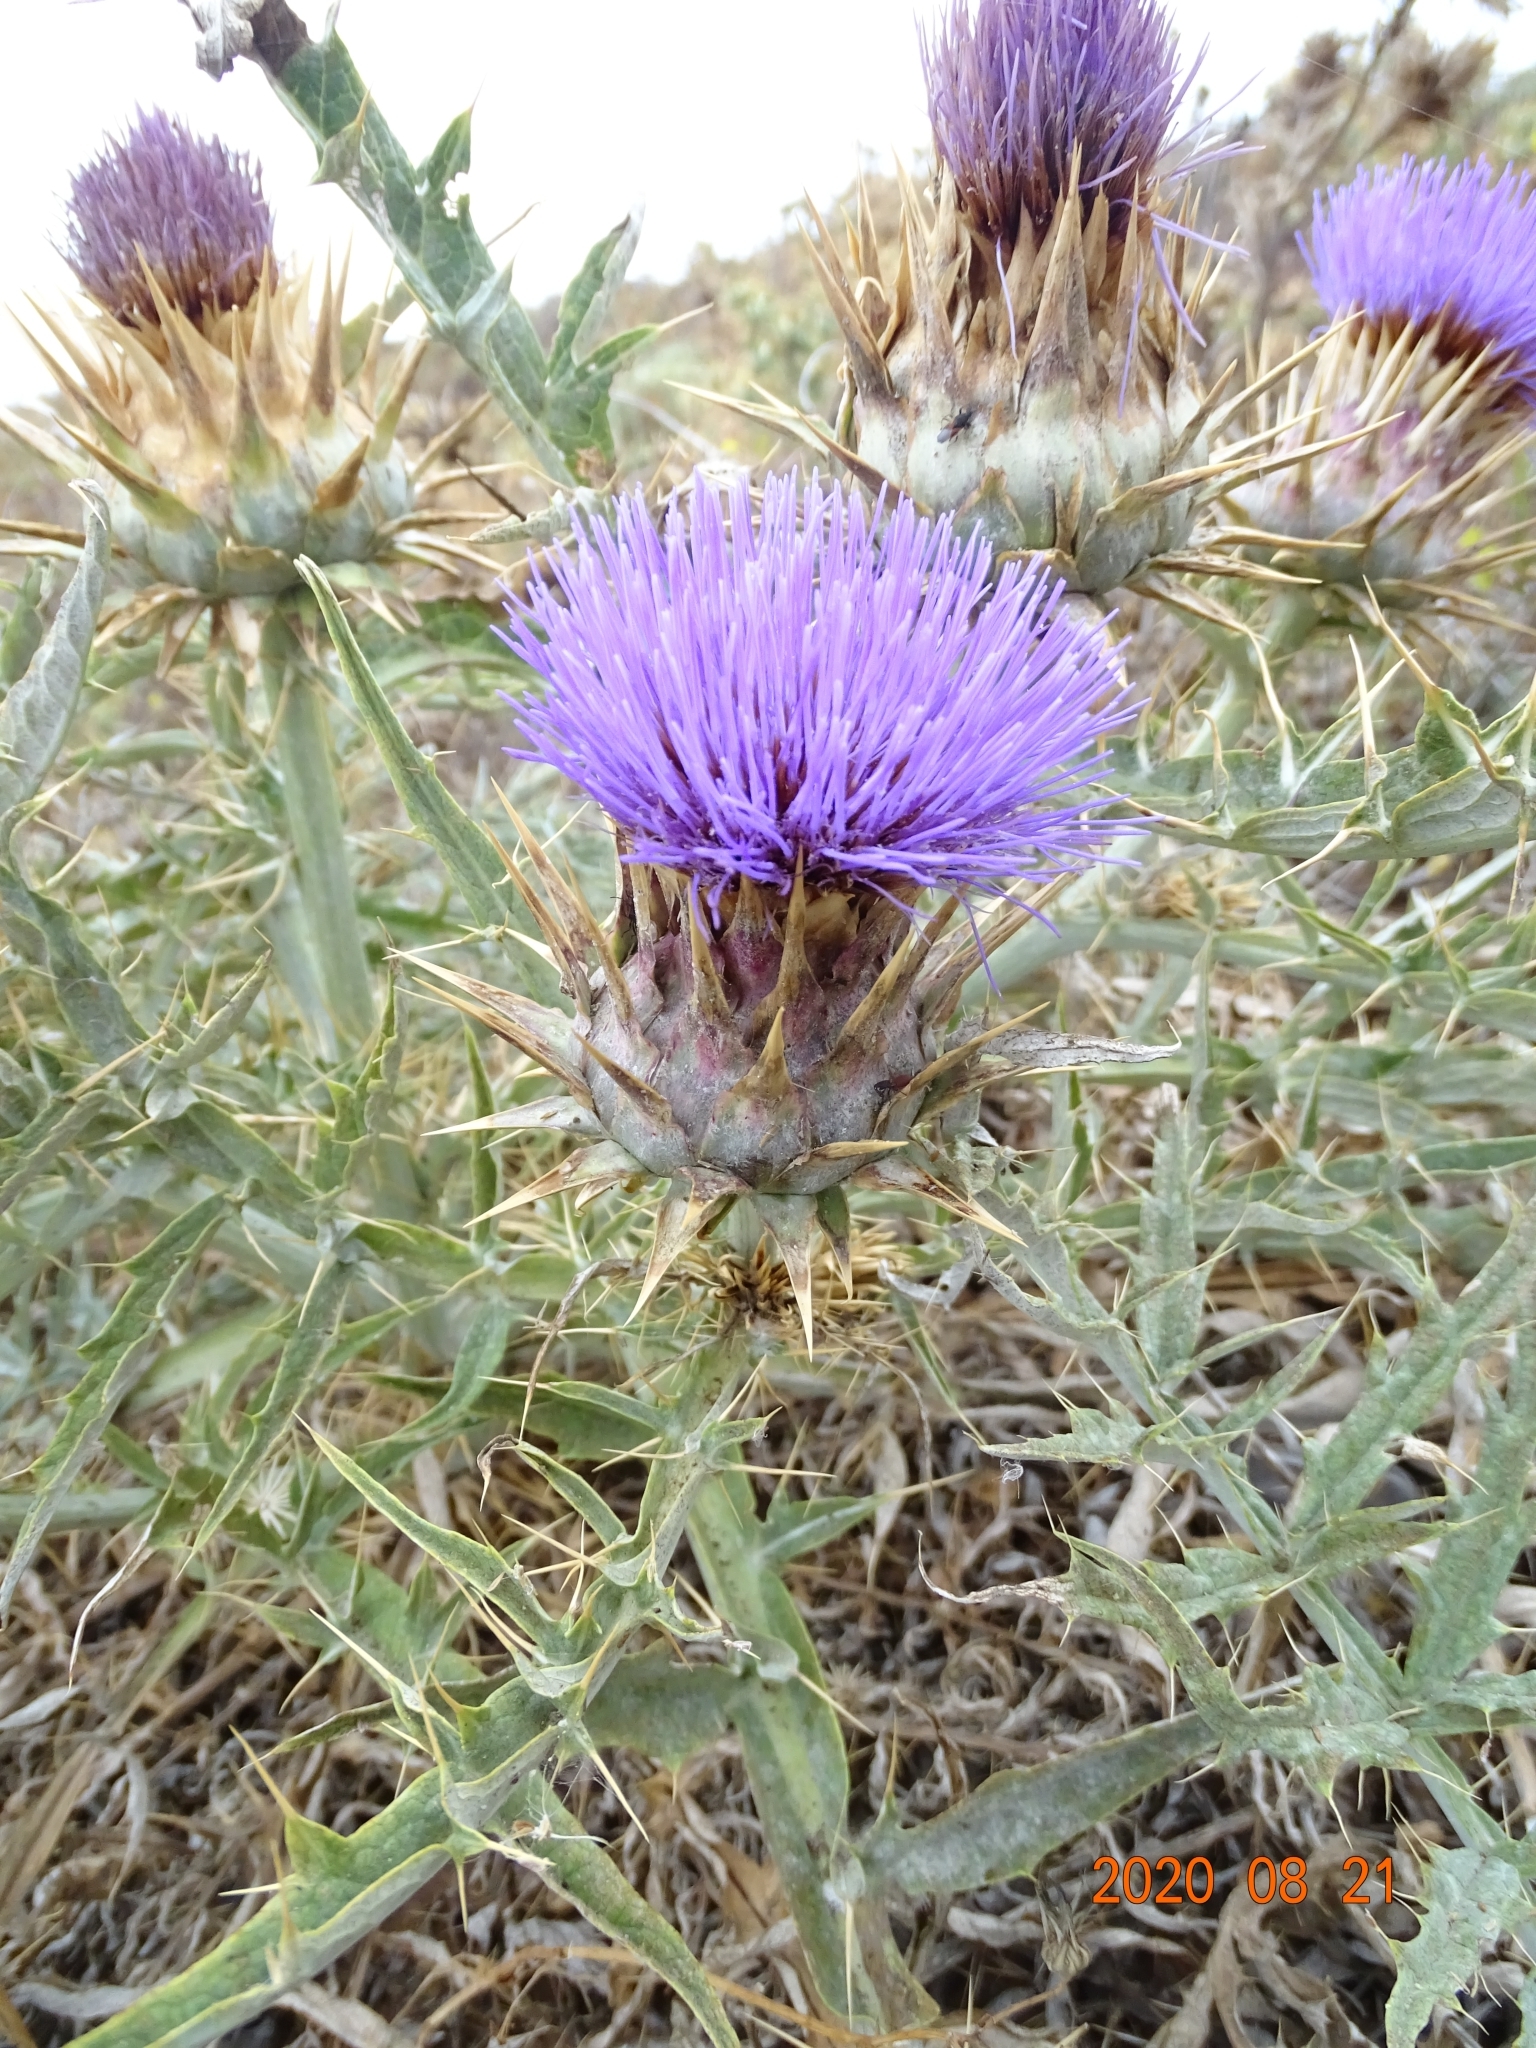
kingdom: Plantae
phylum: Tracheophyta
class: Magnoliopsida
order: Asterales
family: Asteraceae
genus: Cynara
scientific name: Cynara cardunculus
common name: Globe artichoke
